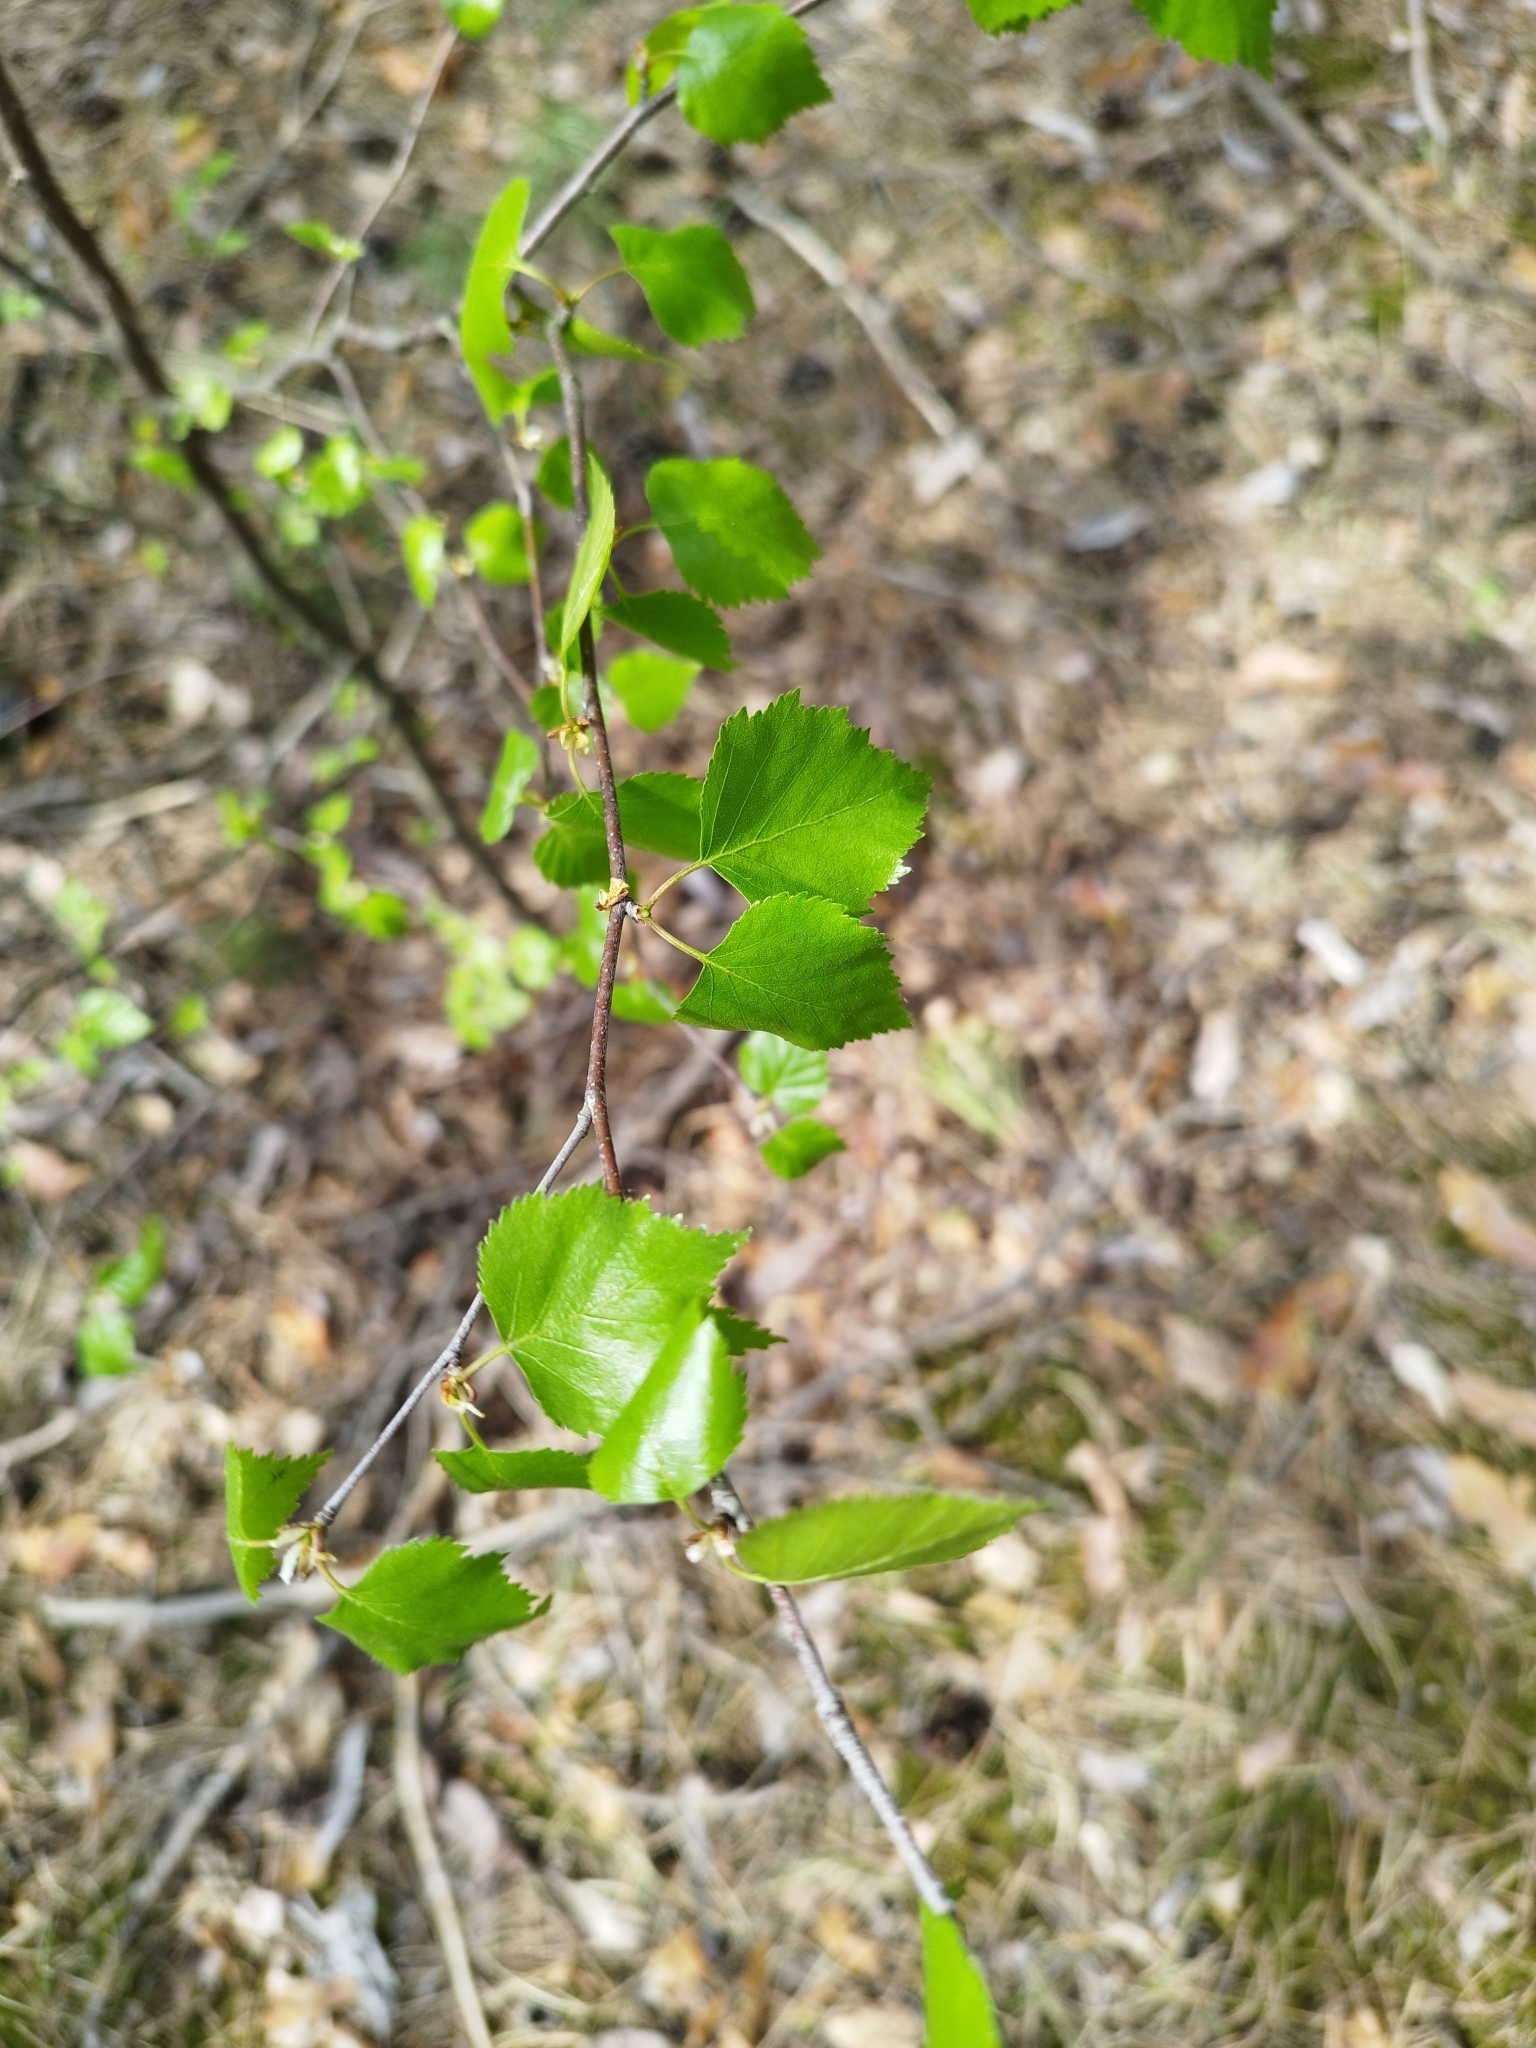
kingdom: Plantae
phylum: Tracheophyta
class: Magnoliopsida
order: Fagales
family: Betulaceae
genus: Betula
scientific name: Betula pendula
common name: Silver birch
